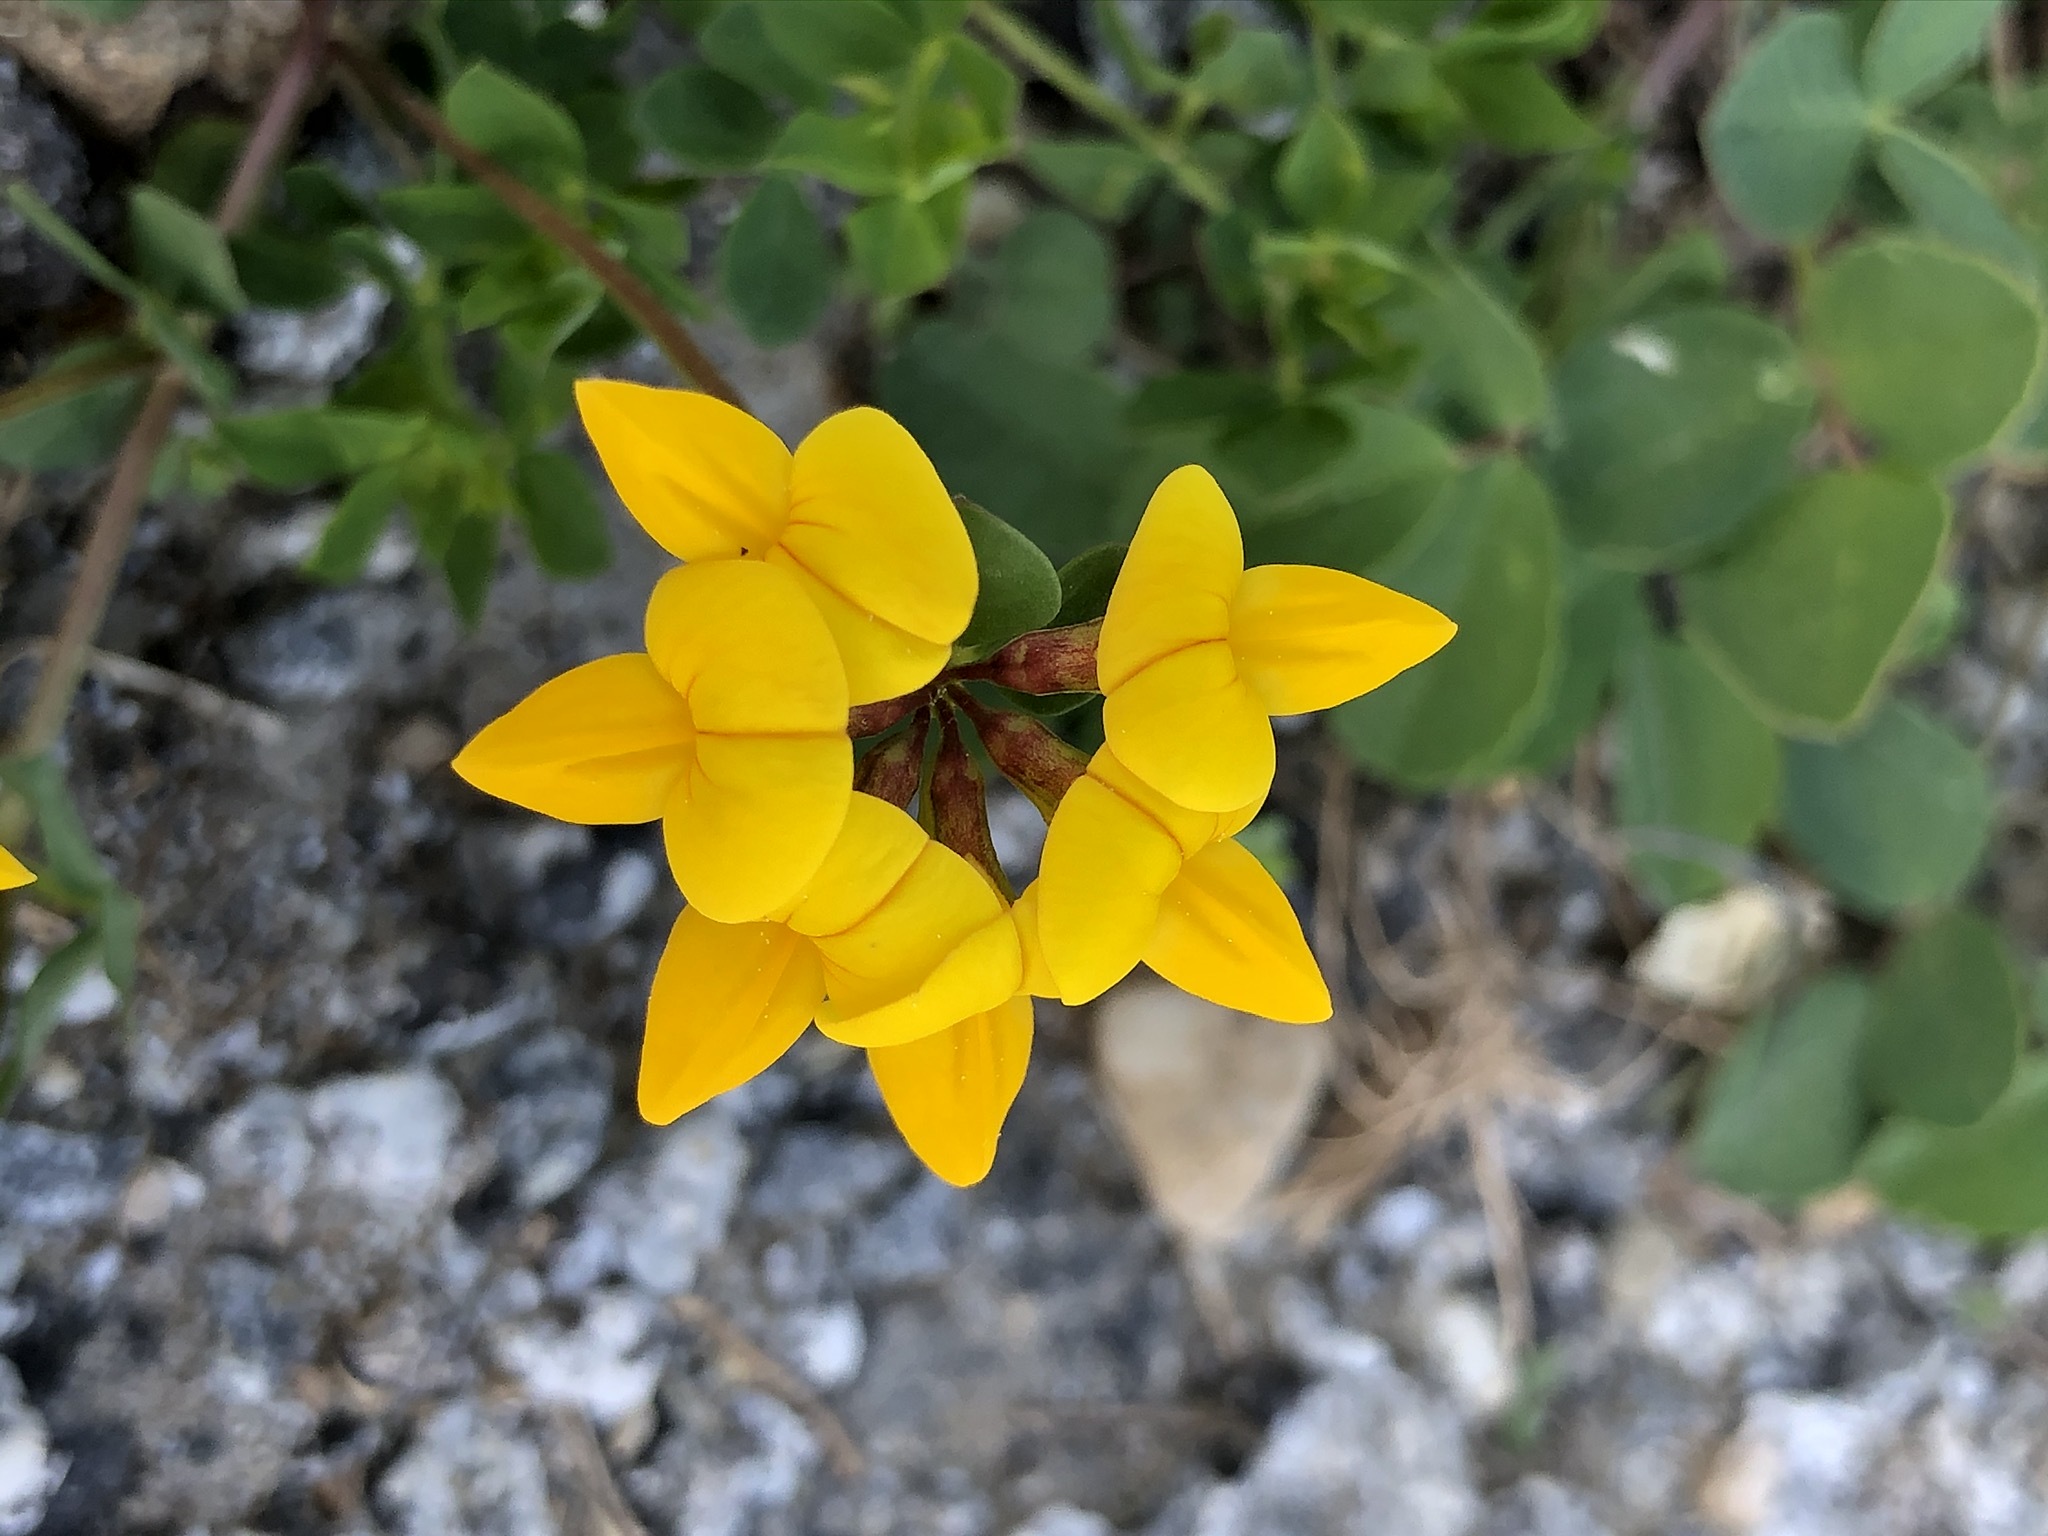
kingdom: Plantae
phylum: Tracheophyta
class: Magnoliopsida
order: Fabales
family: Fabaceae
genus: Lotus
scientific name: Lotus corniculatus
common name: Common bird's-foot-trefoil
